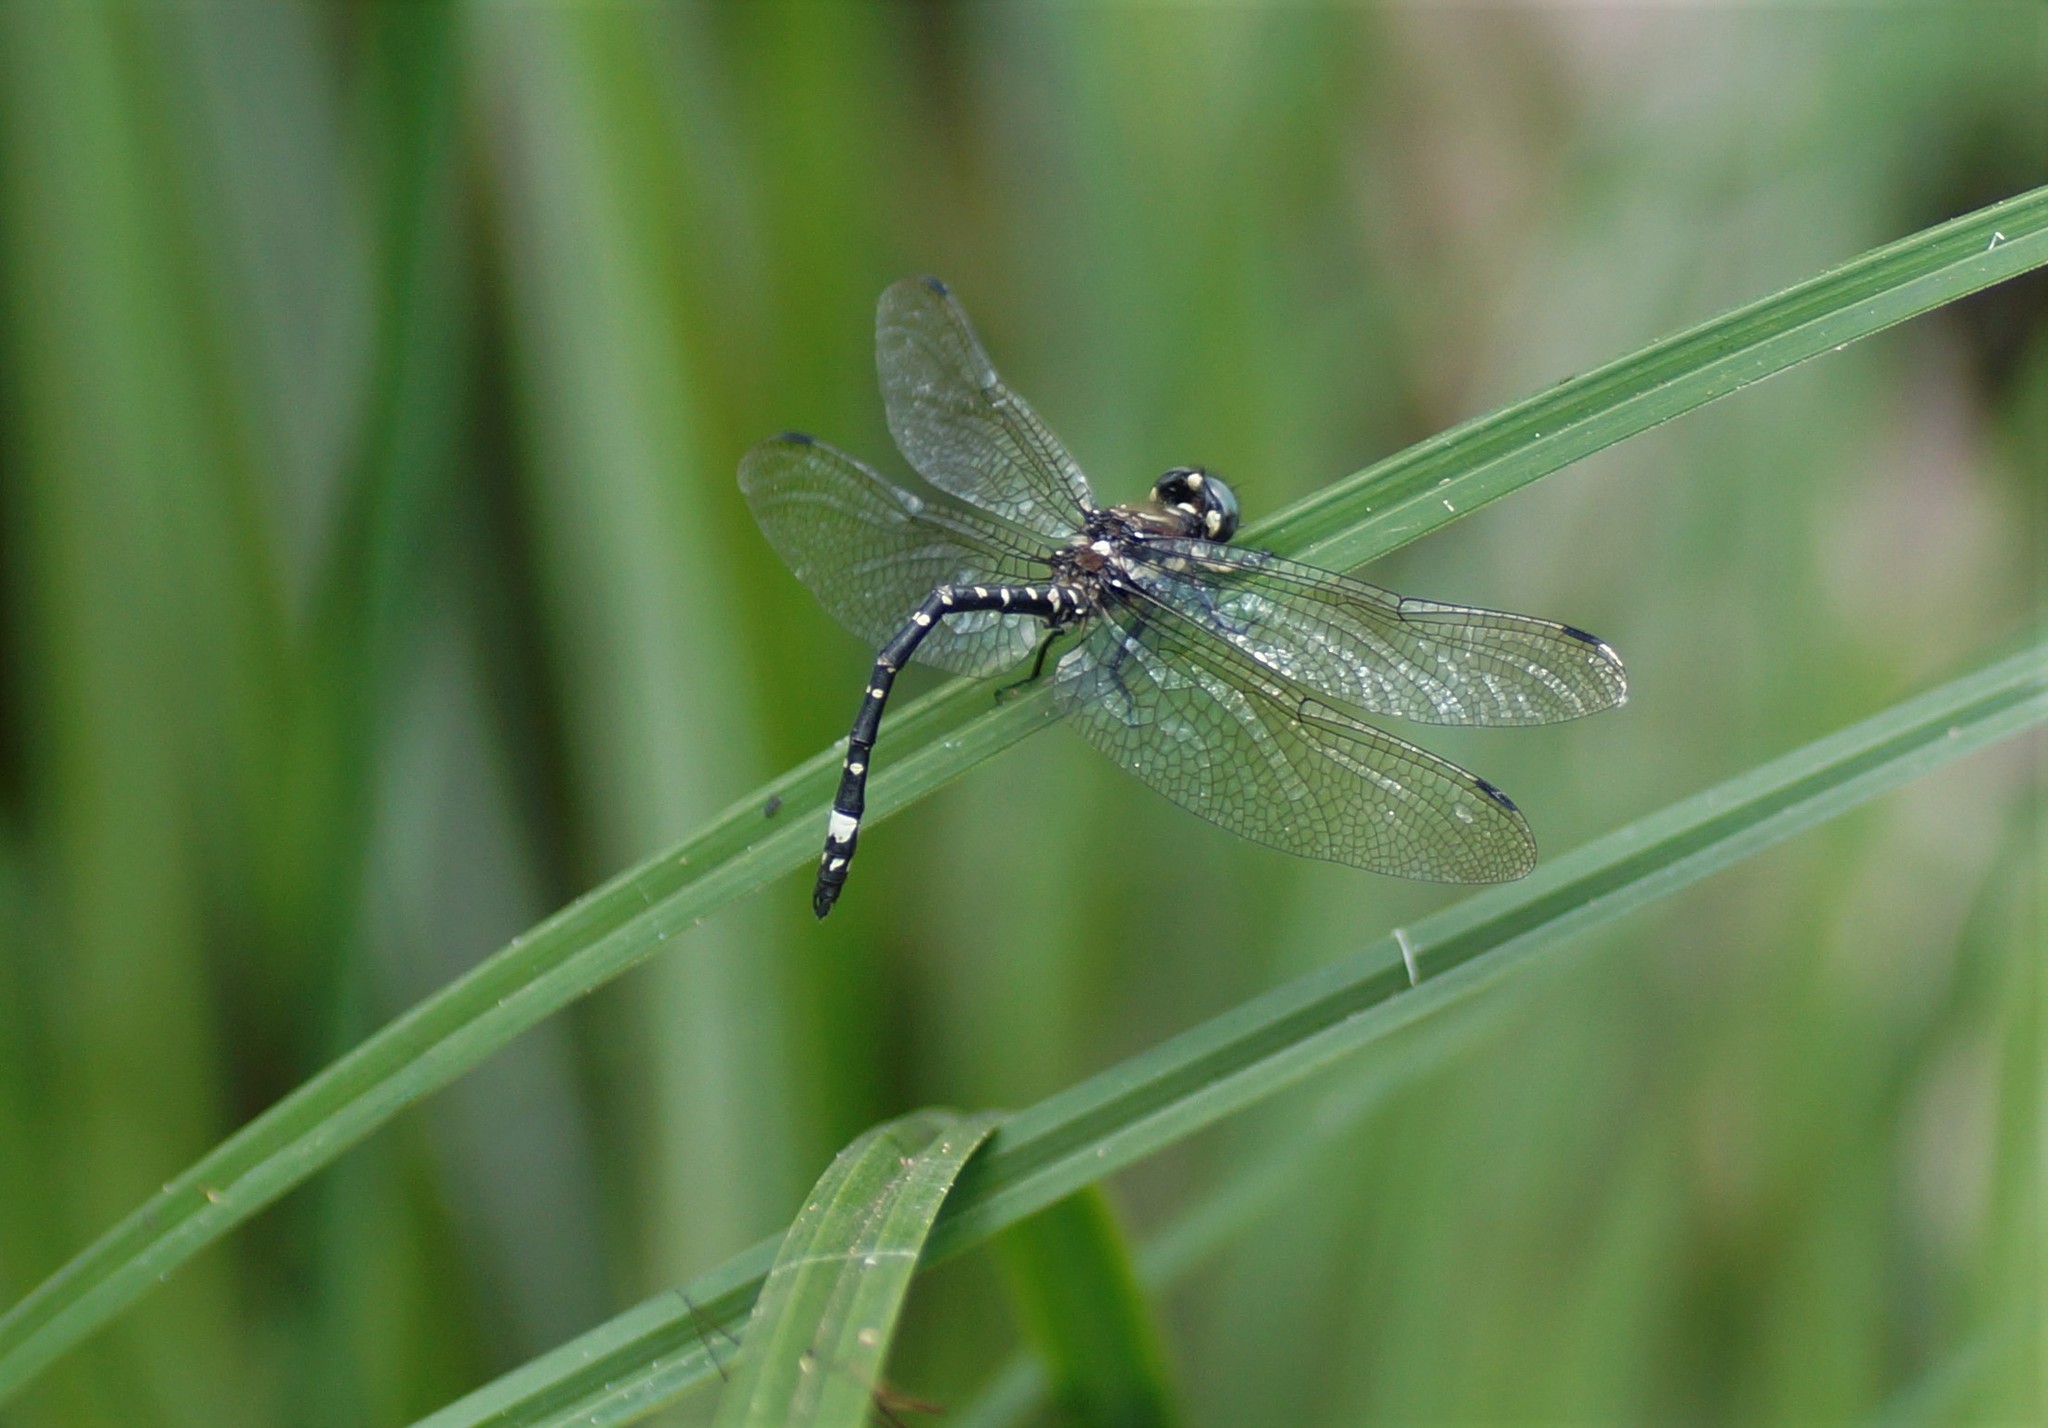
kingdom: Animalia
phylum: Arthropoda
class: Insecta
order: Odonata
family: Synthemistidae
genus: Eusynthemis
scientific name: Eusynthemis brevistyla
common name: Small tigertail
